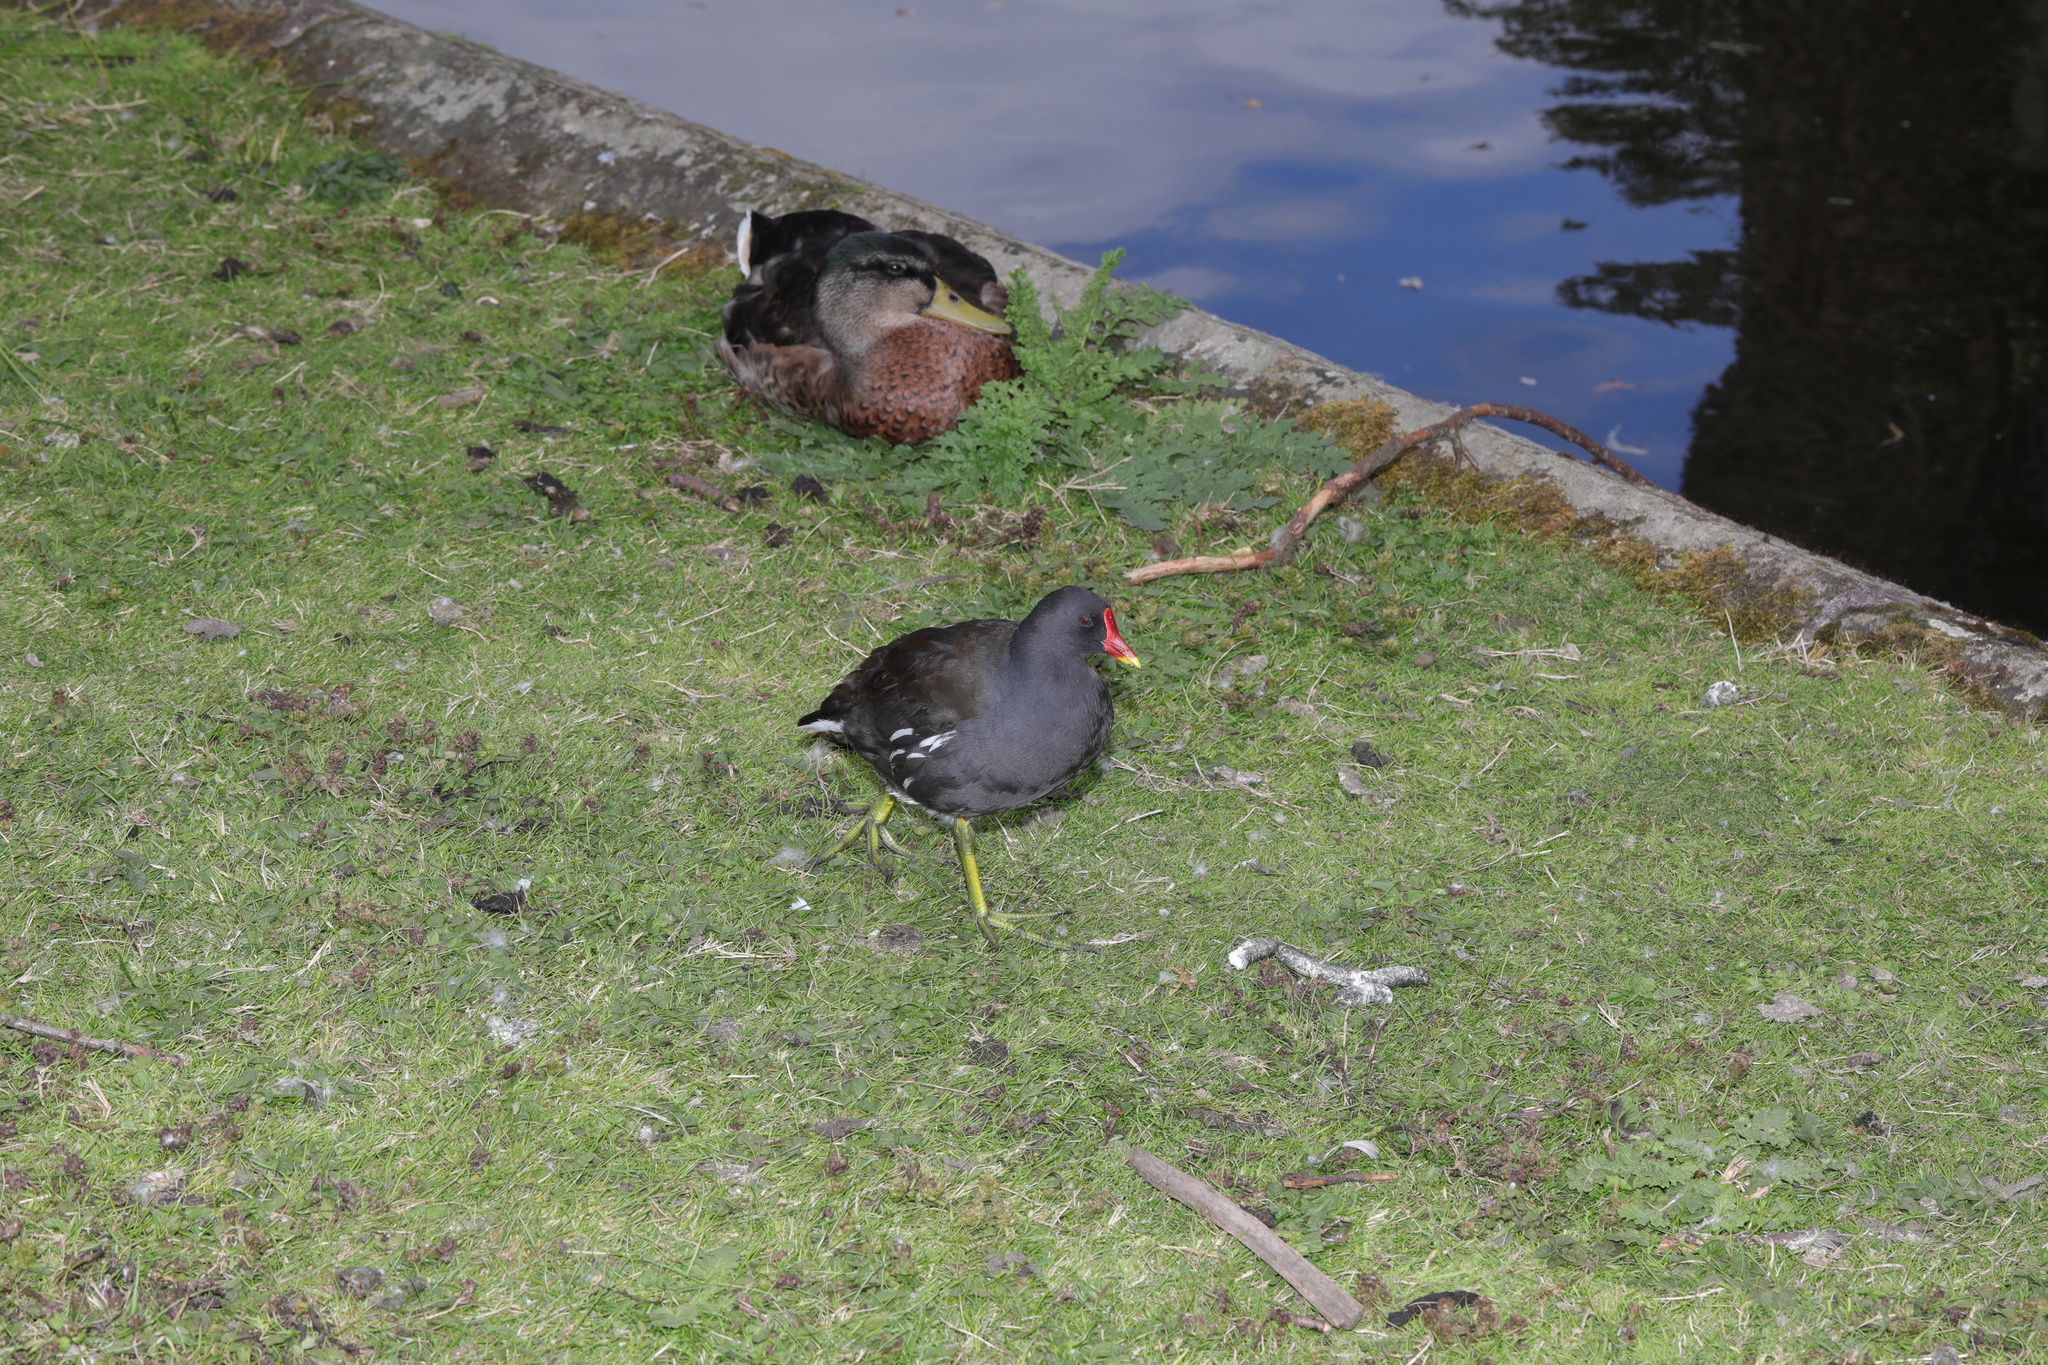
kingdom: Animalia
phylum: Chordata
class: Aves
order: Gruiformes
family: Rallidae
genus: Gallinula
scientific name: Gallinula chloropus
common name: Common moorhen
